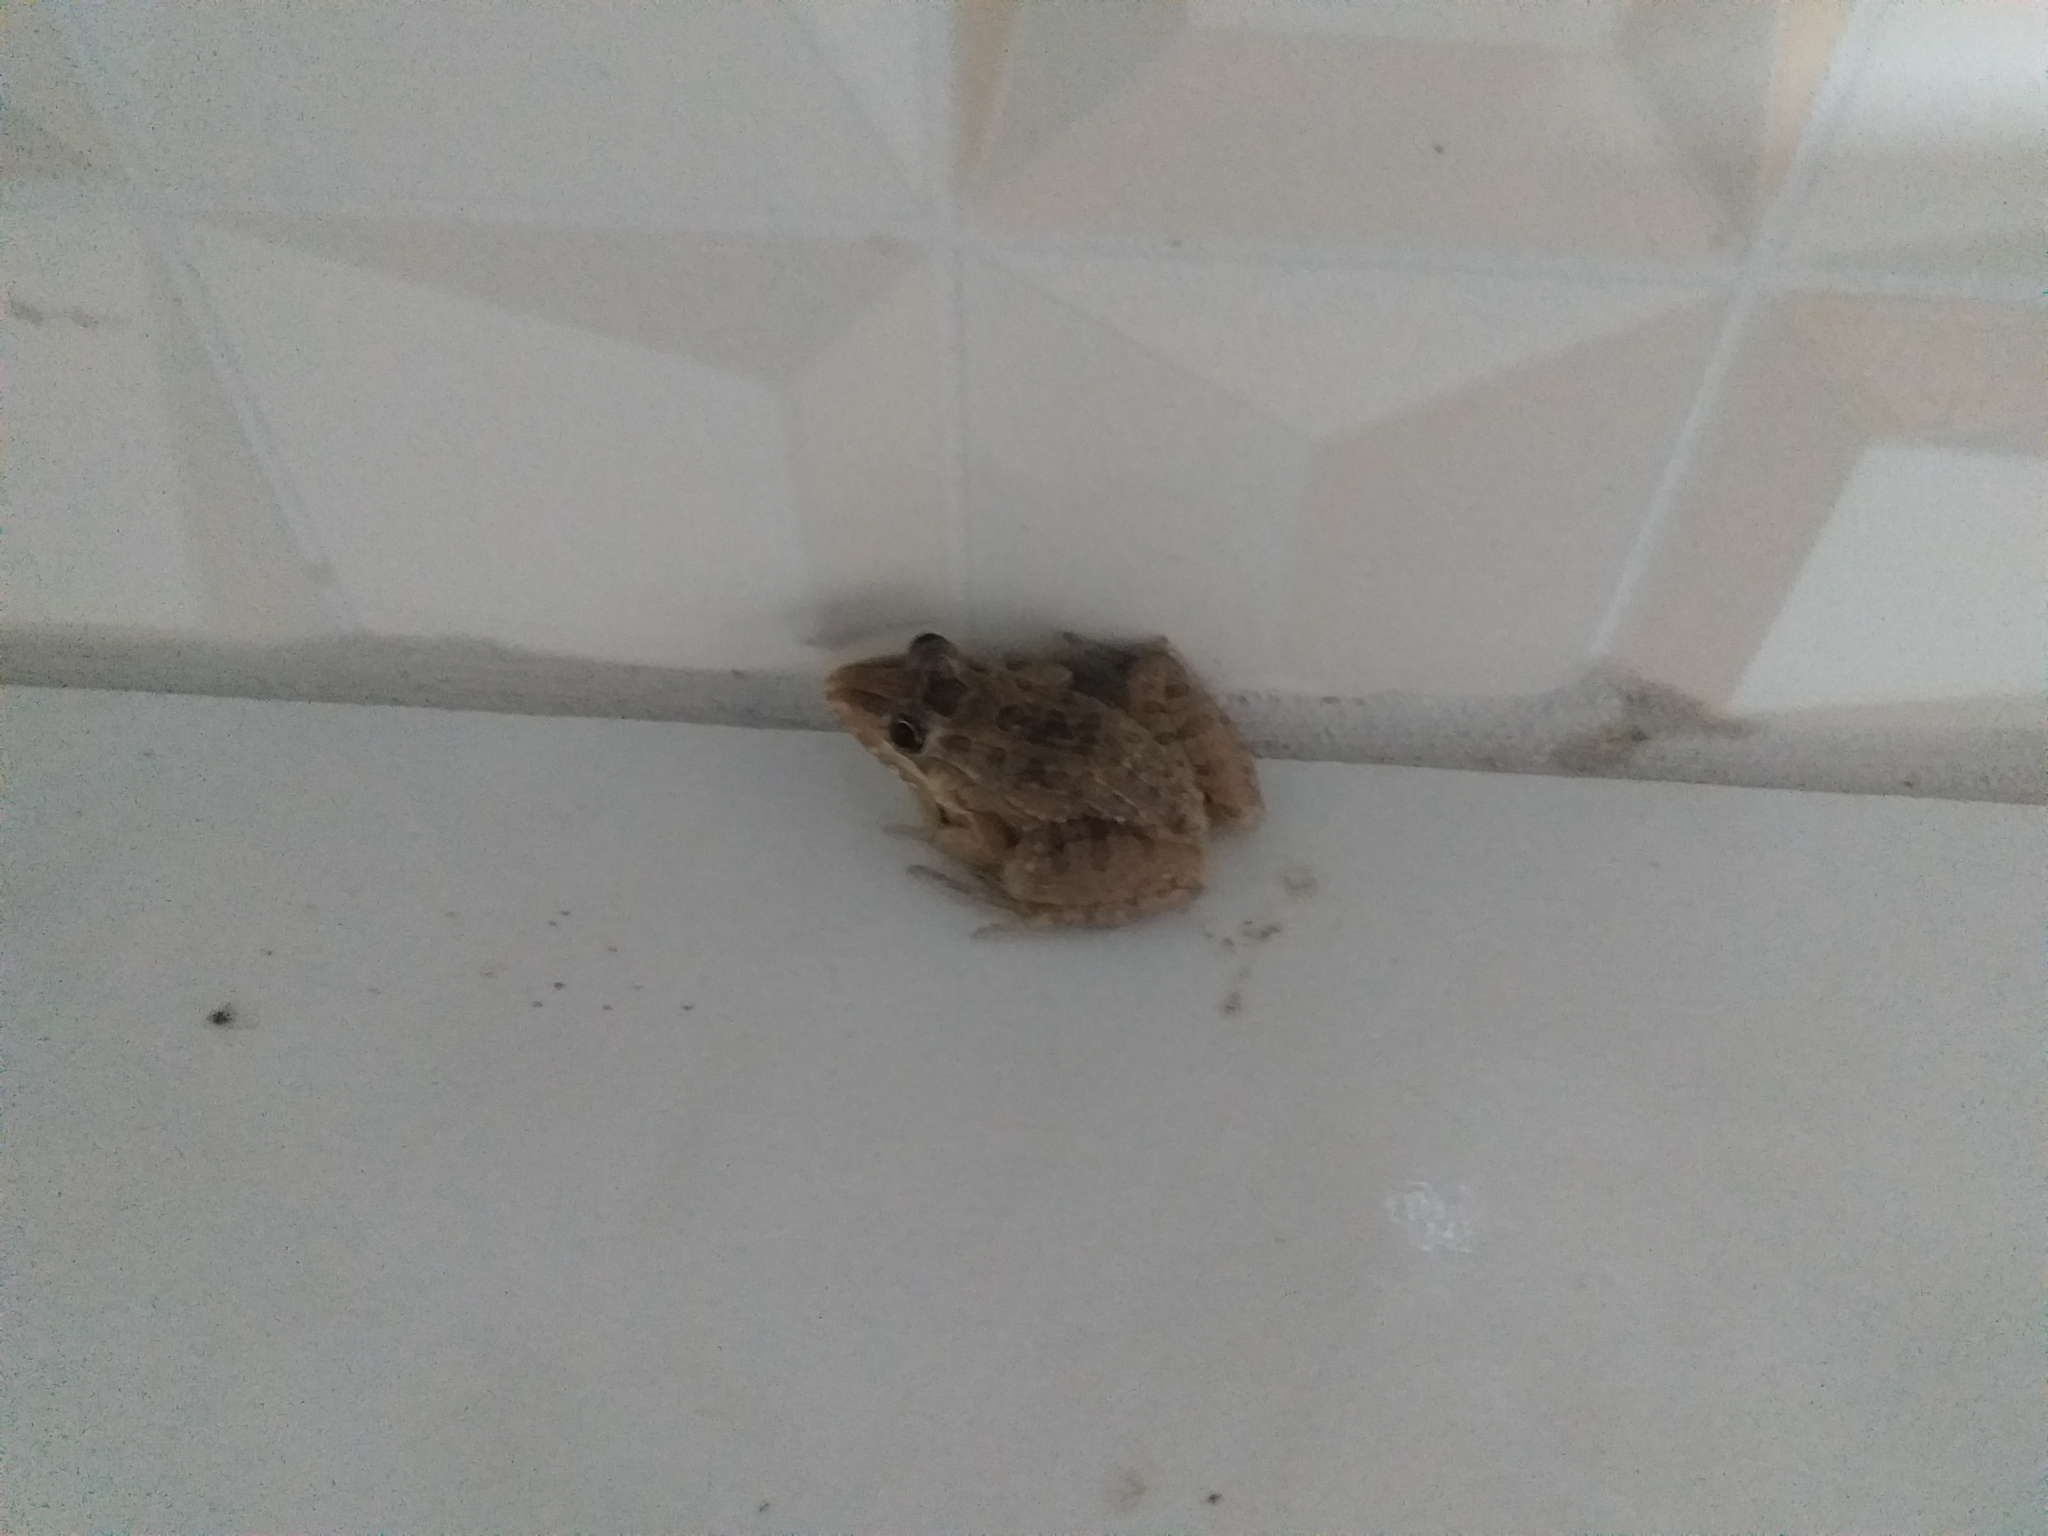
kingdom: Animalia
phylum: Chordata
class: Amphibia
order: Anura
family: Leptodactylidae
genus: Leptodactylus
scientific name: Leptodactylus macrosternum
